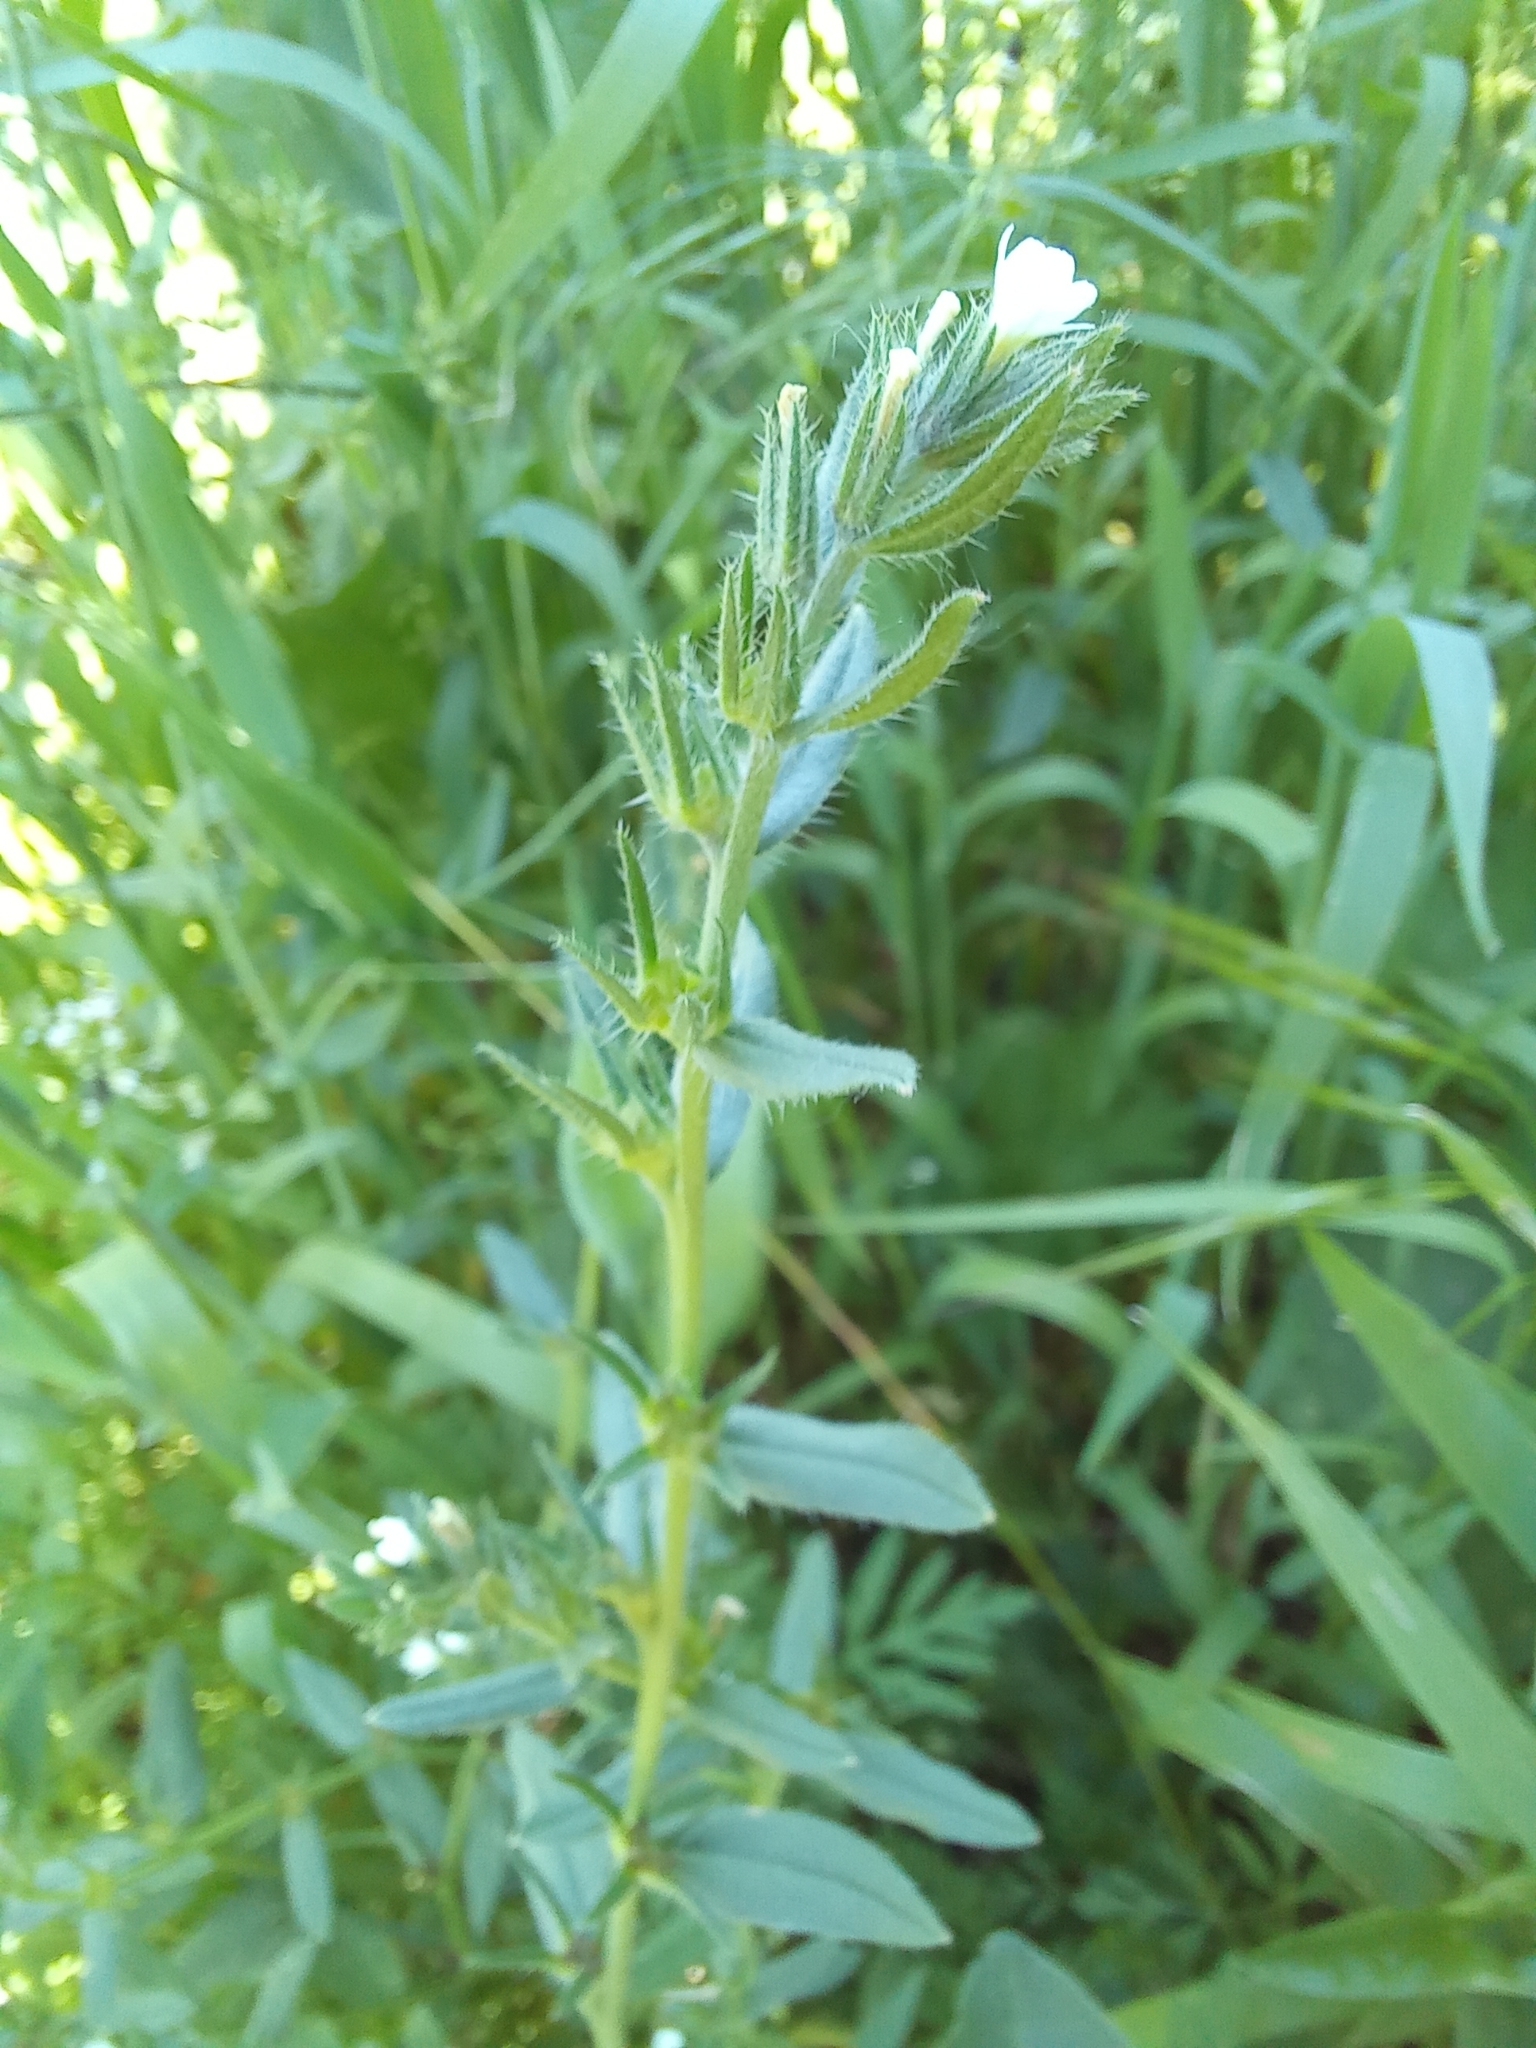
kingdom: Plantae
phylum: Tracheophyta
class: Magnoliopsida
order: Boraginales
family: Boraginaceae
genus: Buglossoides
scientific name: Buglossoides arvensis
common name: Corn gromwell
